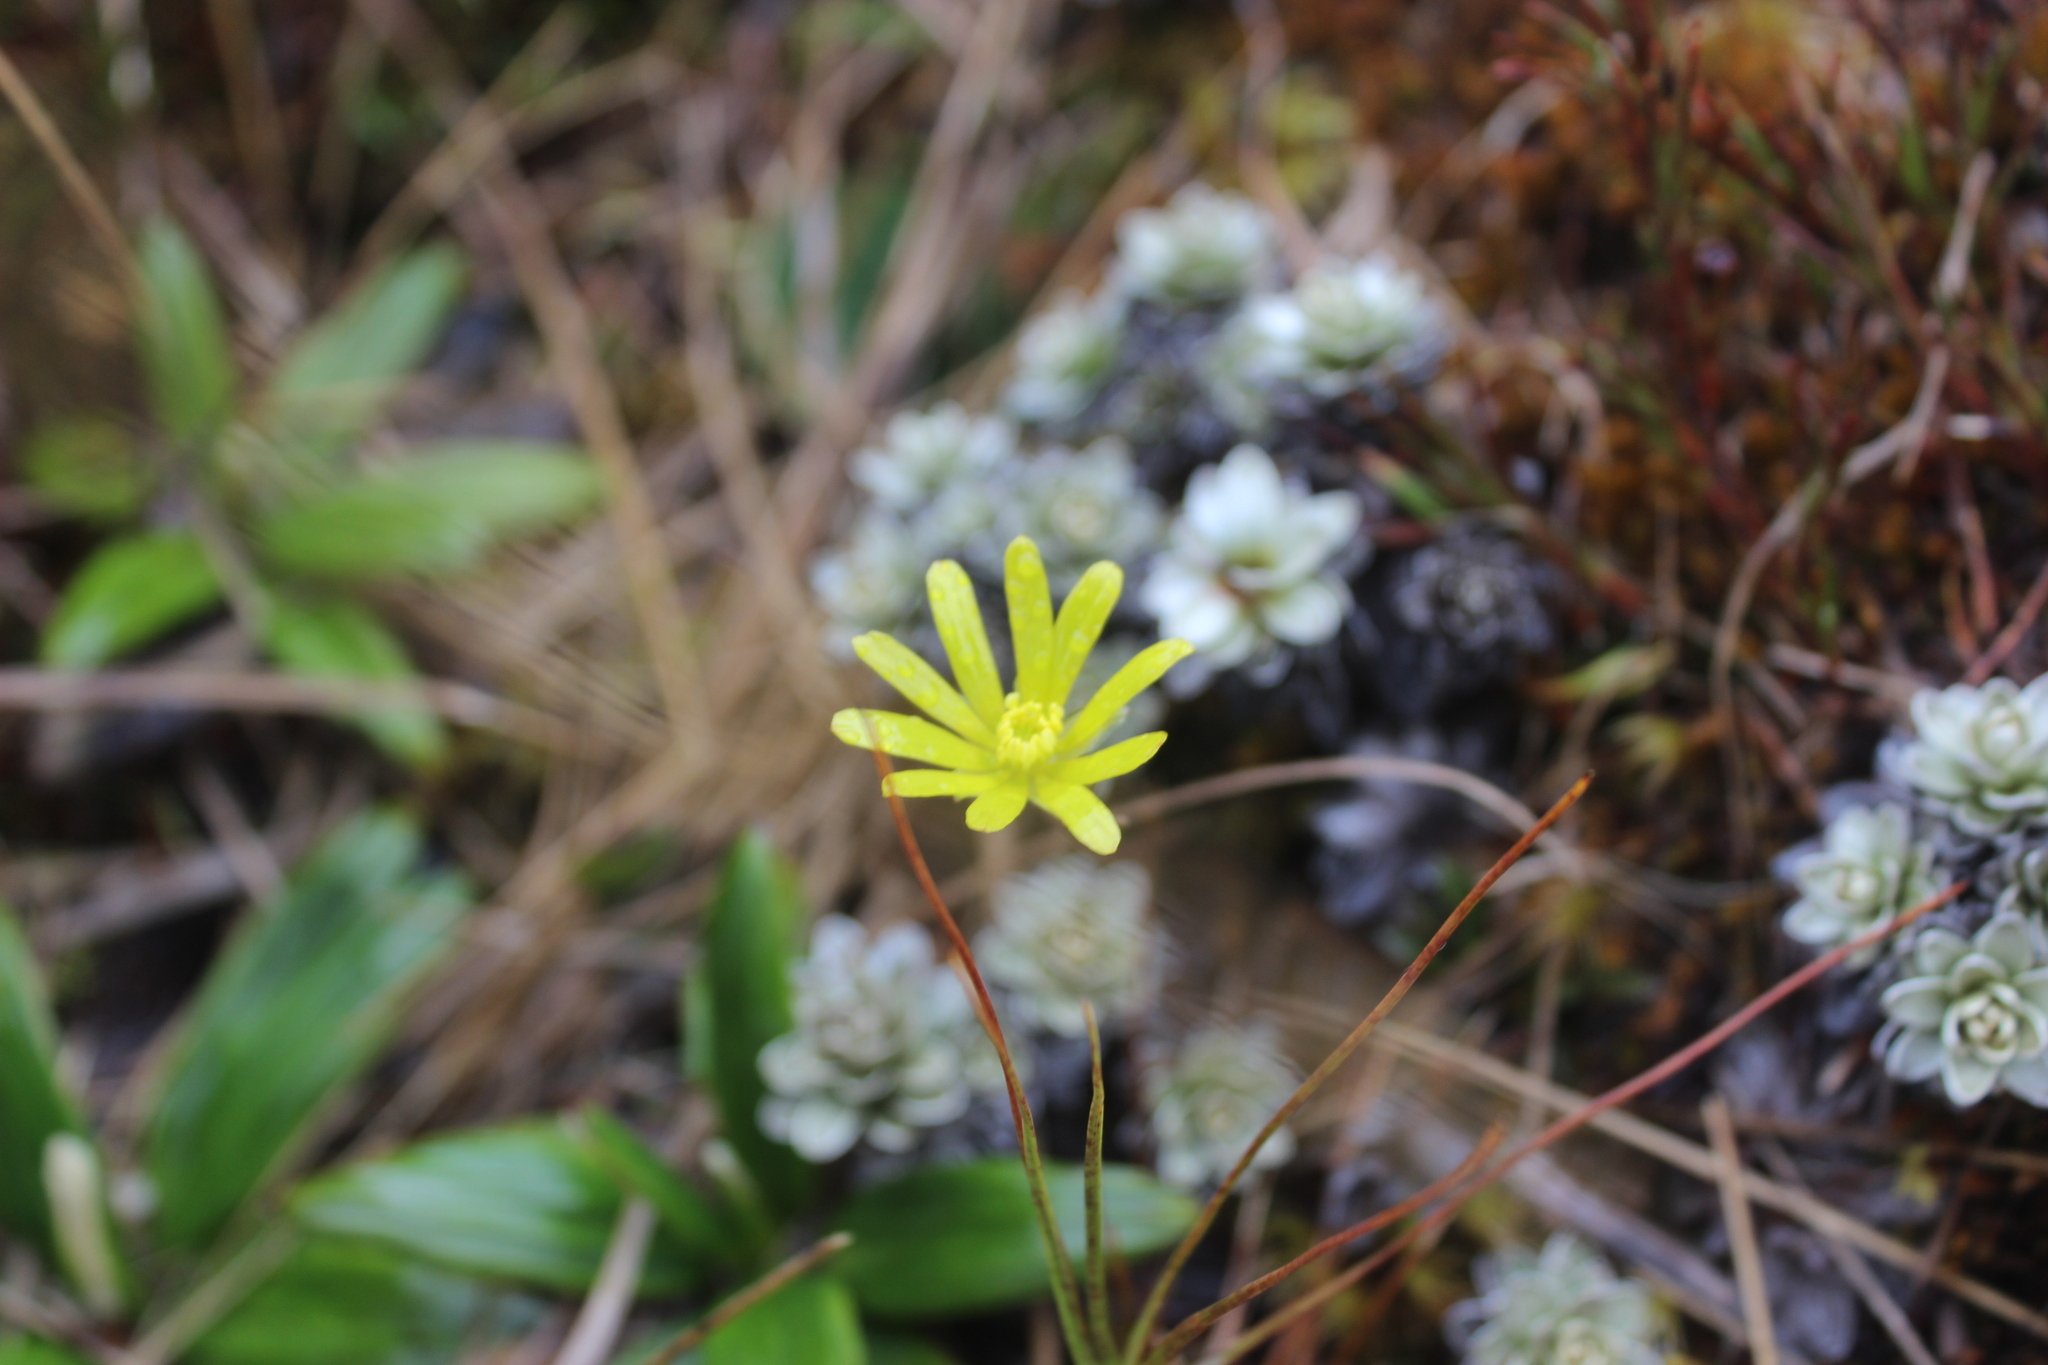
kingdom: Plantae
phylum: Tracheophyta
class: Magnoliopsida
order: Ranunculales
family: Ranunculaceae
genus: Ranunculus
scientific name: Ranunculus verticillatus
